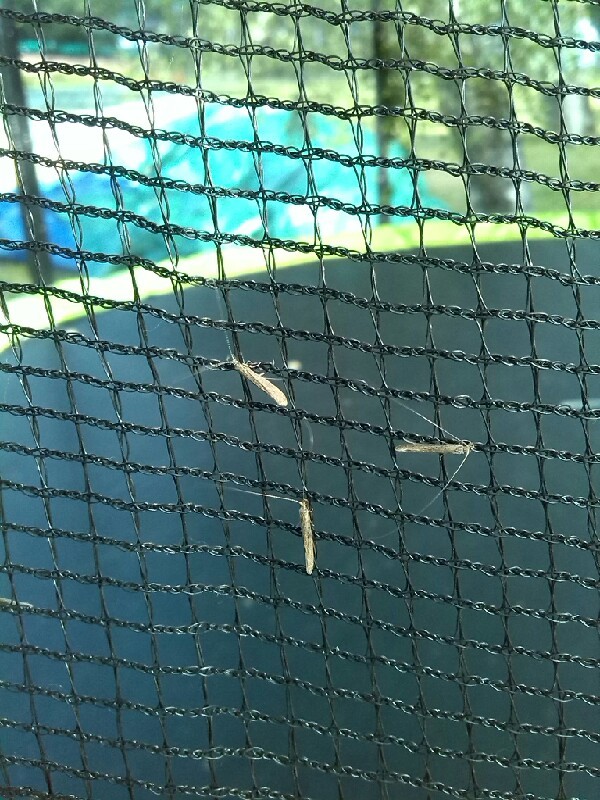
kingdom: Animalia
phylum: Arthropoda
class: Insecta
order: Trichoptera
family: Leptoceridae
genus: Leptocerus
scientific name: Leptocerus tineiformis
